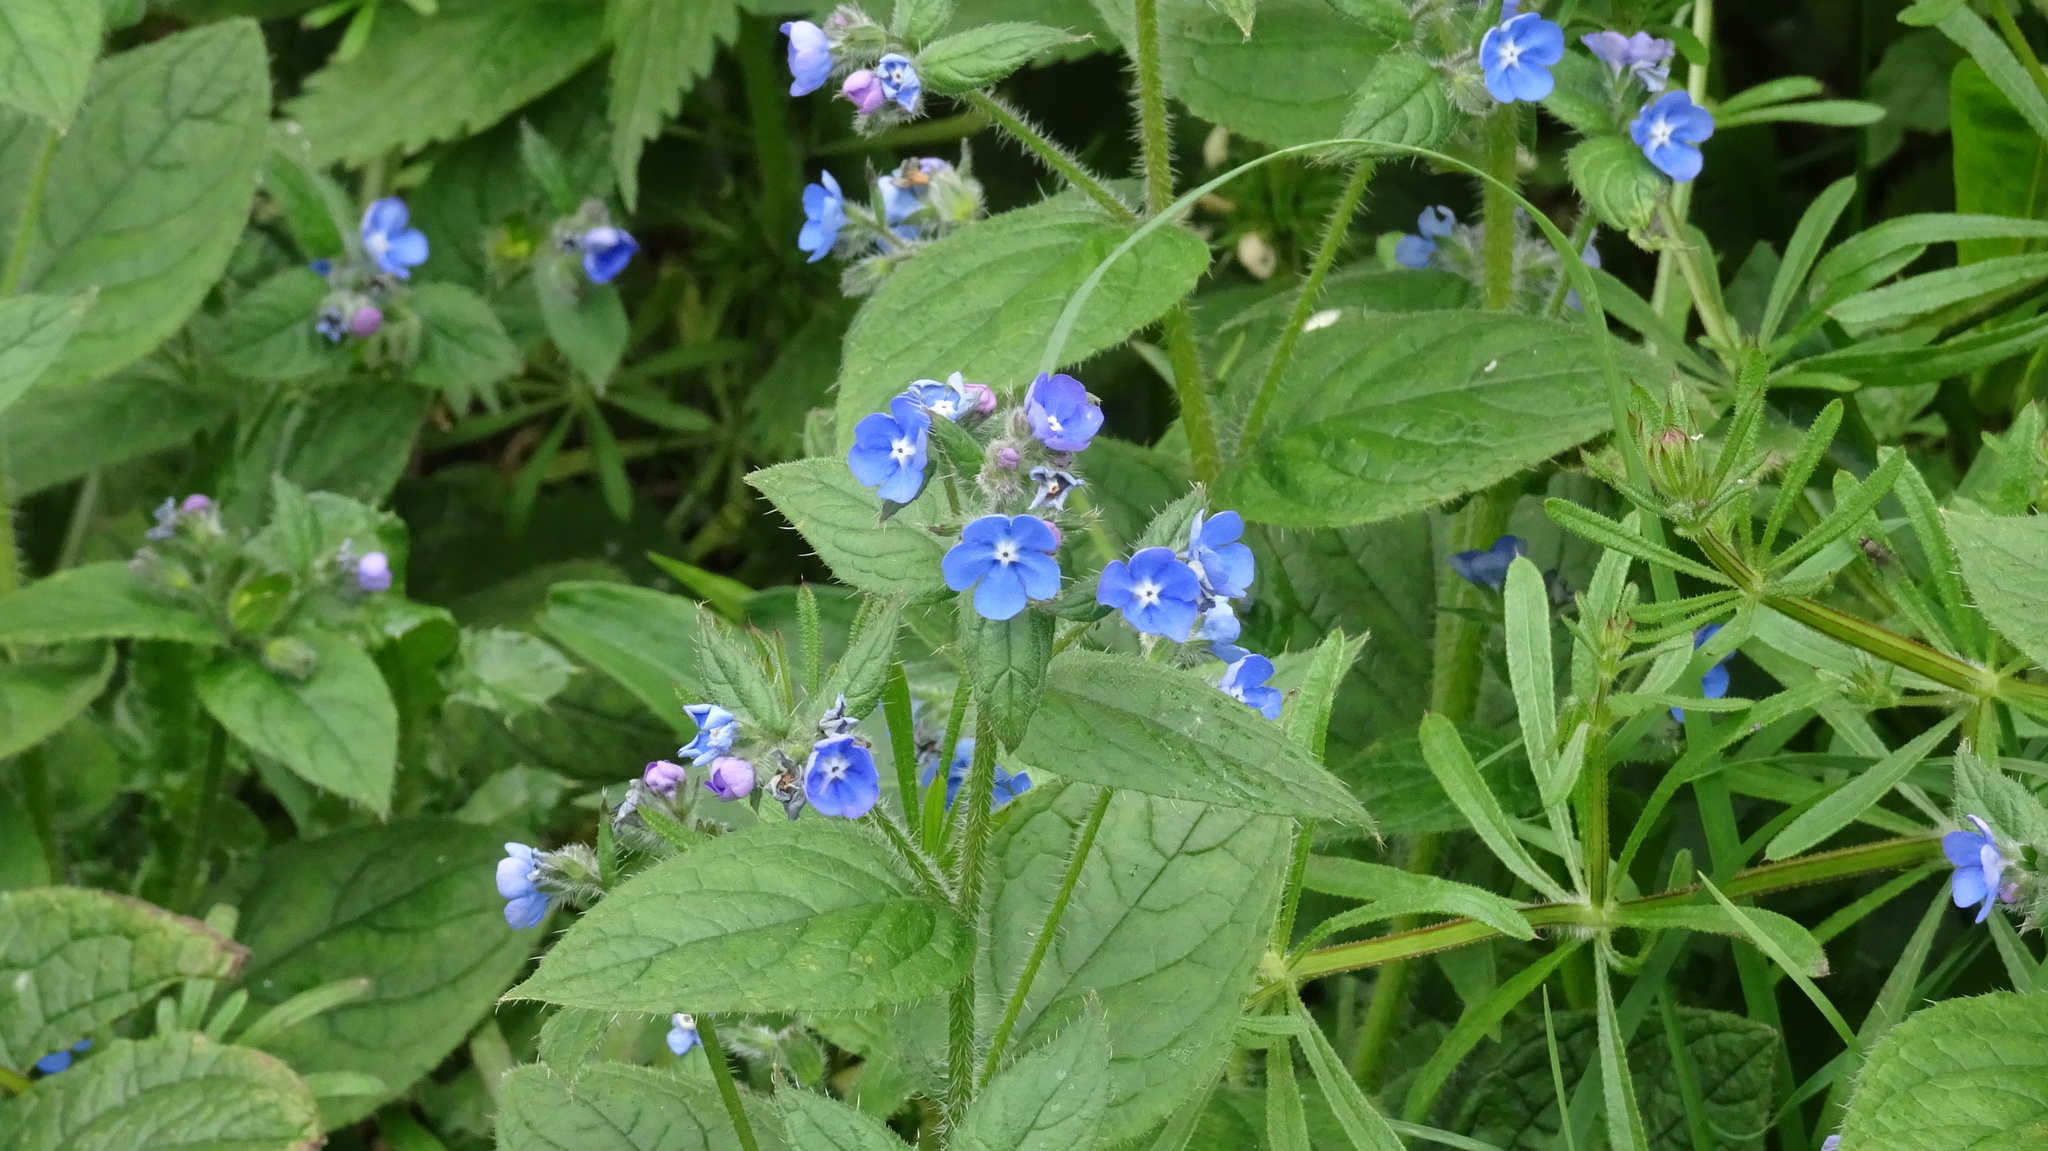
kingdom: Plantae
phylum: Tracheophyta
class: Magnoliopsida
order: Boraginales
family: Boraginaceae
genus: Pentaglottis
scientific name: Pentaglottis sempervirens
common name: Green alkanet
